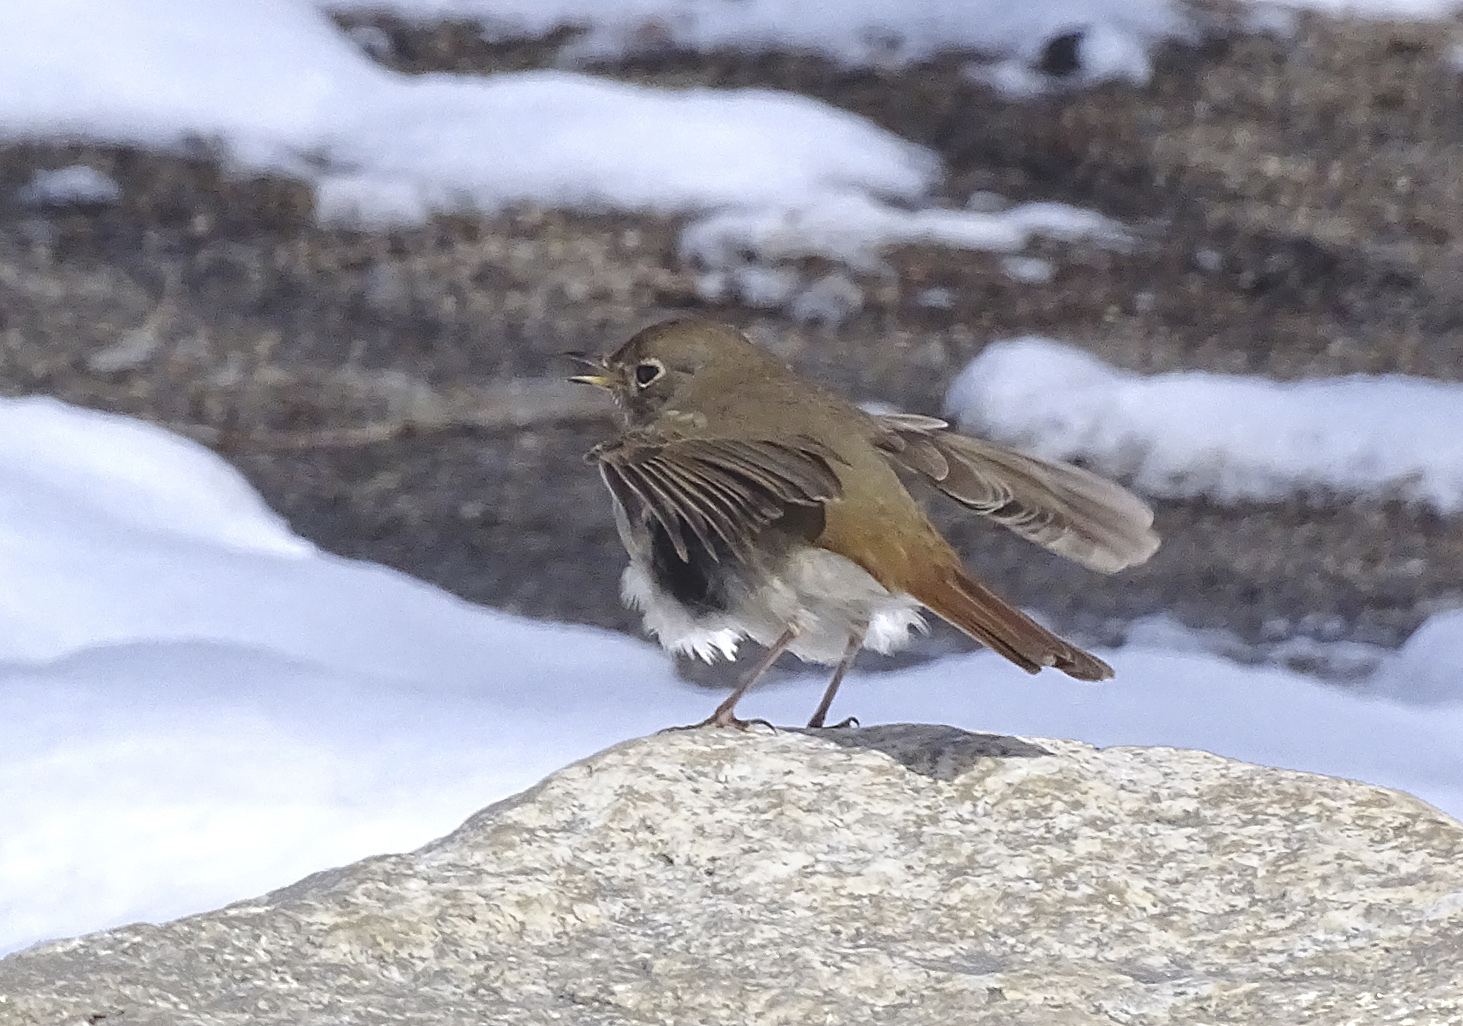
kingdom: Animalia
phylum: Chordata
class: Aves
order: Passeriformes
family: Turdidae
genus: Catharus
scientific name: Catharus guttatus
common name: Hermit thrush
